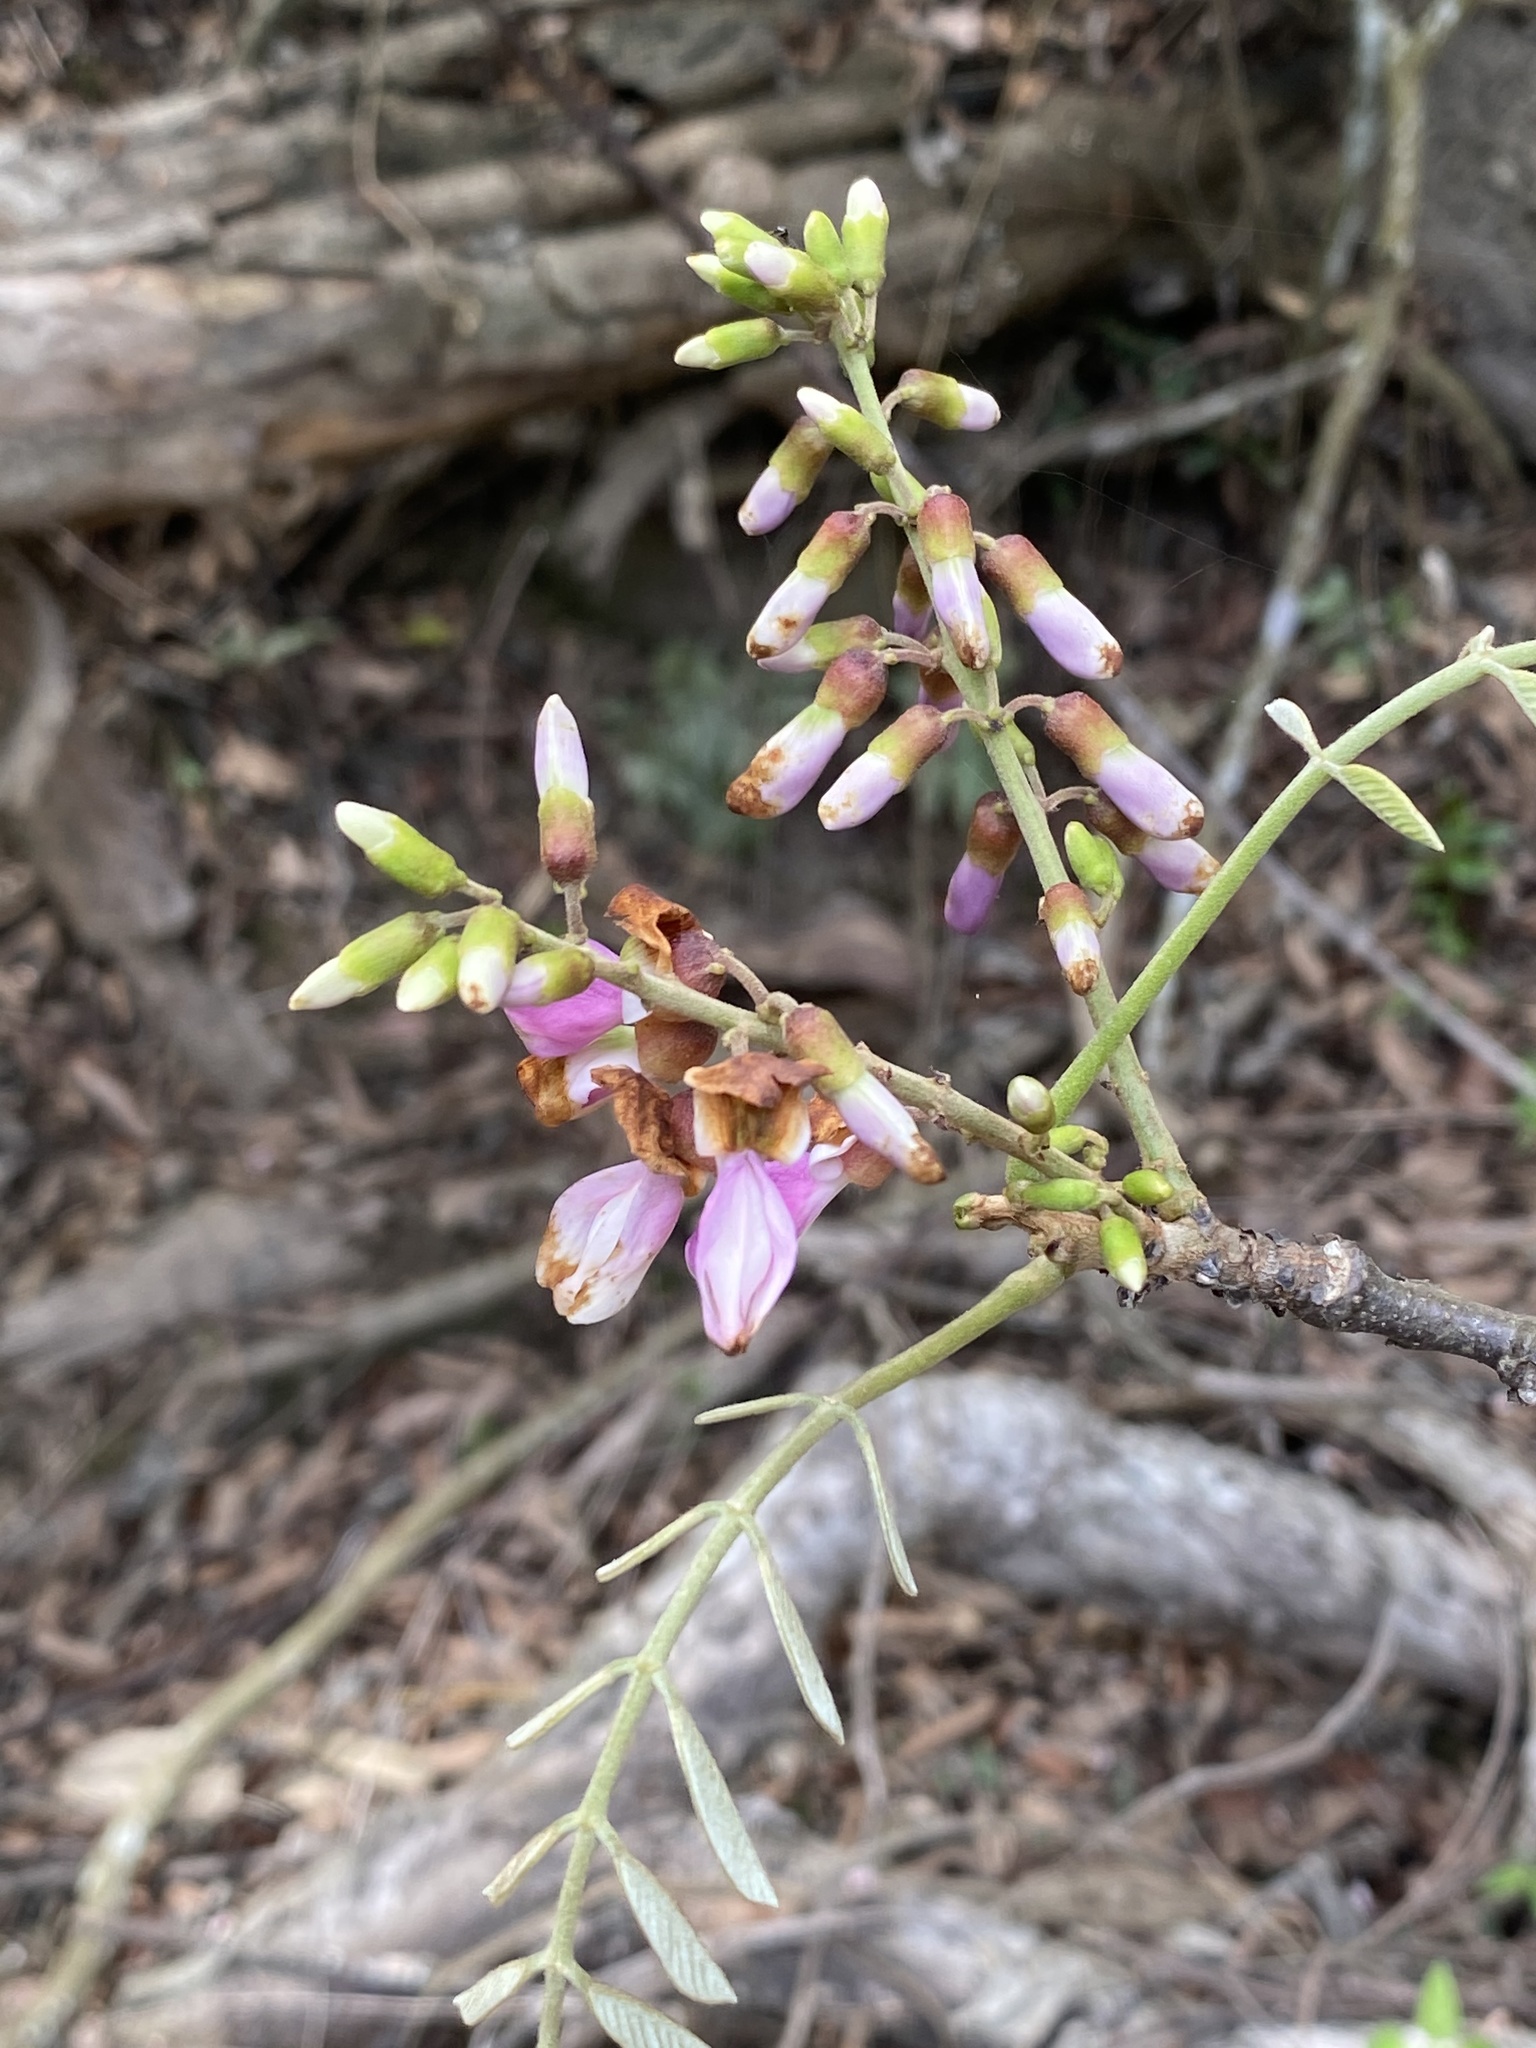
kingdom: Plantae
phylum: Tracheophyta
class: Magnoliopsida
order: Fabales
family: Fabaceae
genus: Millettia
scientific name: Millettia pachycarpa
